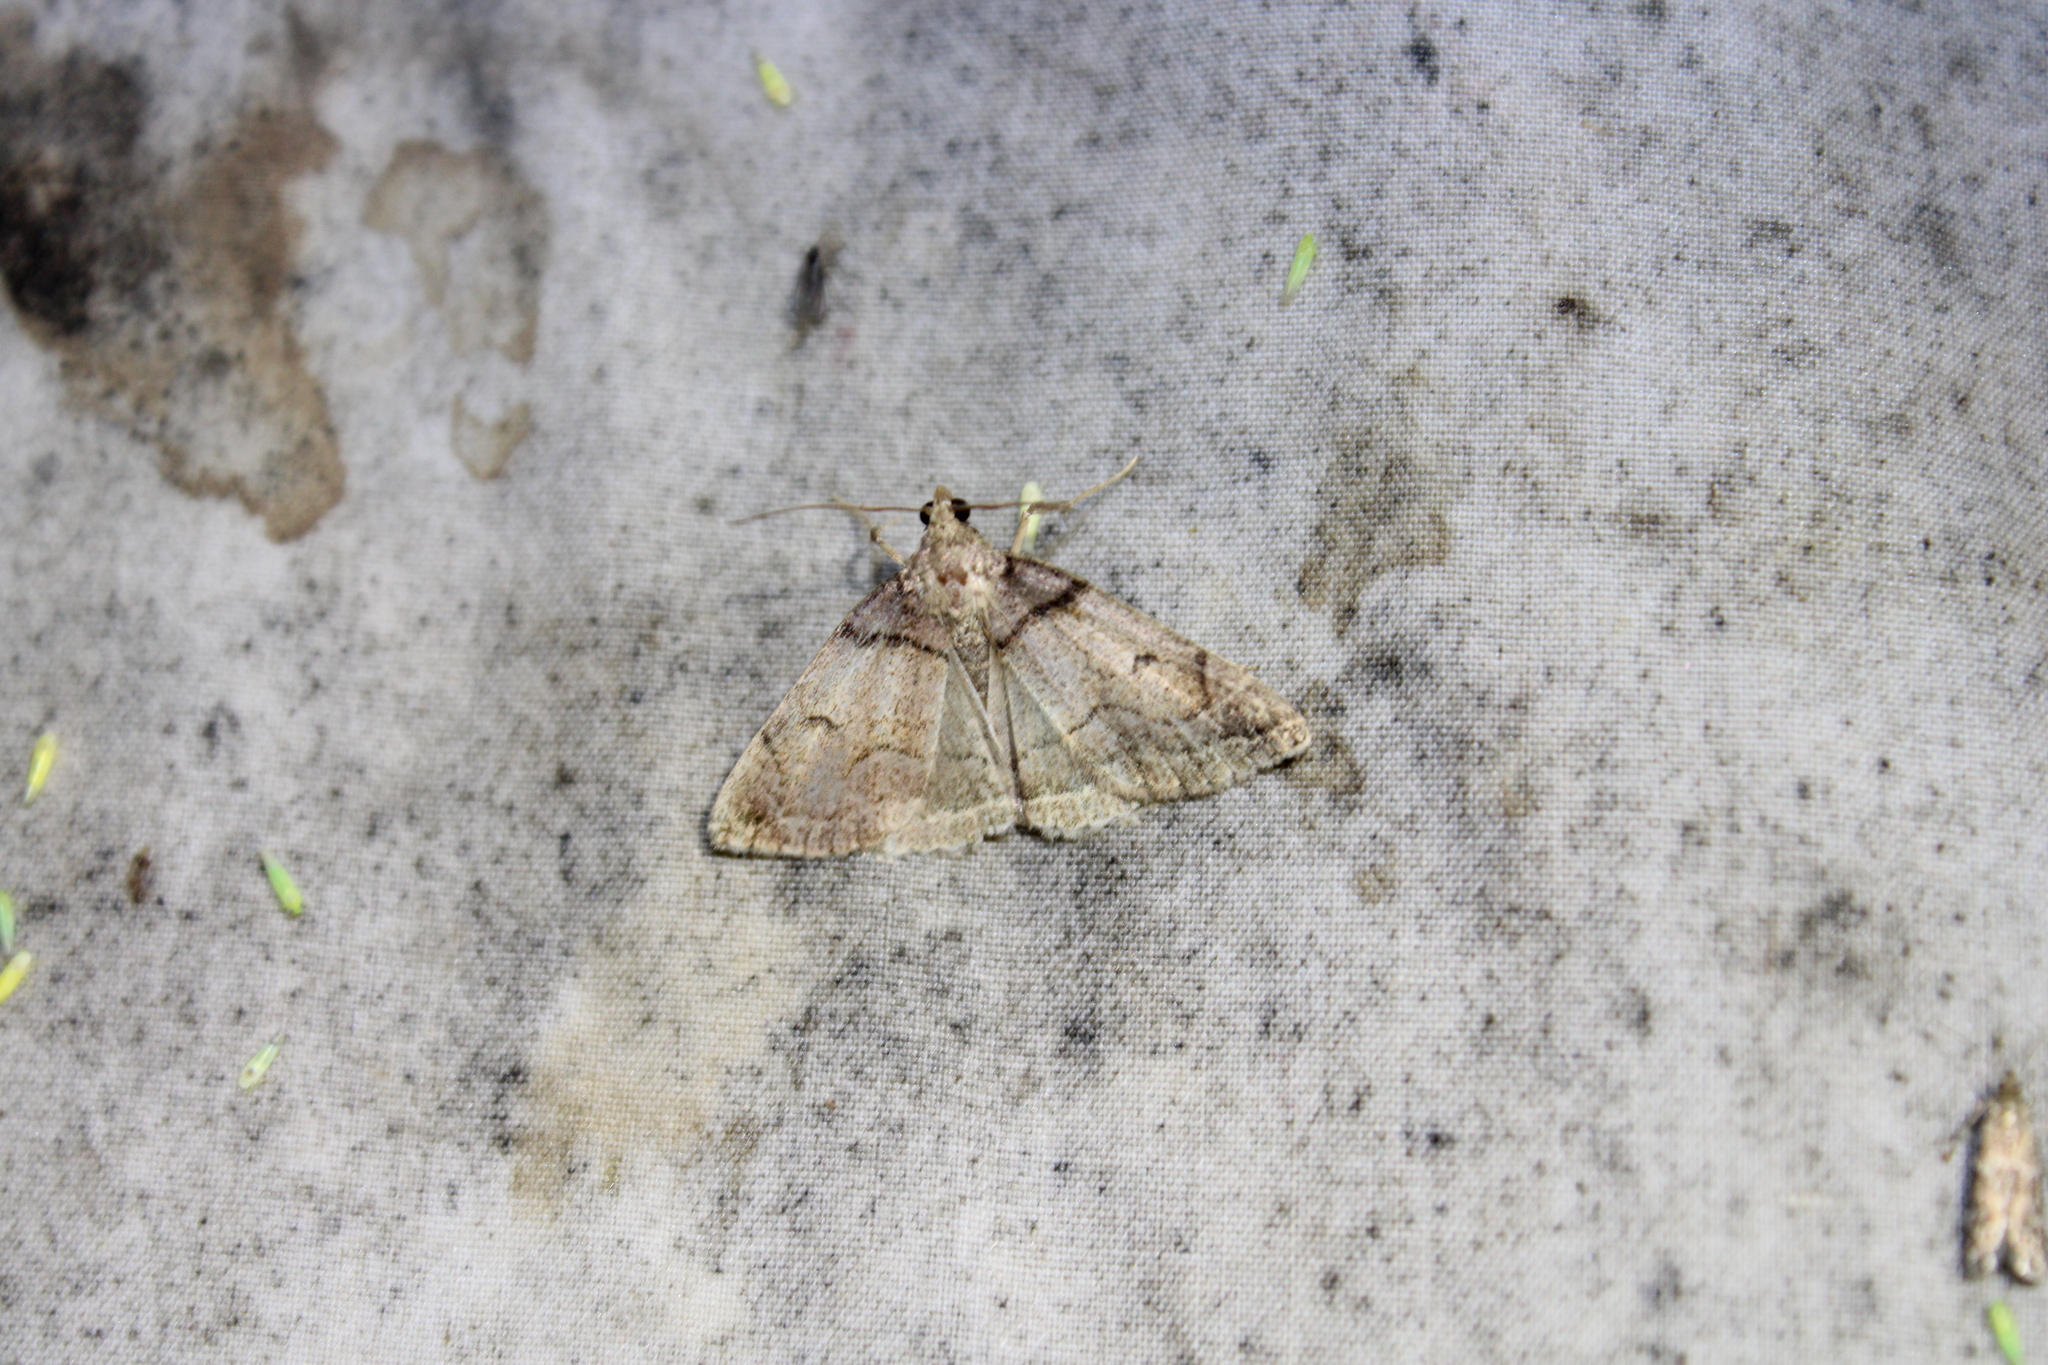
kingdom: Animalia
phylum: Arthropoda
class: Insecta
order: Lepidoptera
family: Erebidae
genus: Zanclognatha
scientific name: Zanclognatha laevigata
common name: Variable fan-foot
